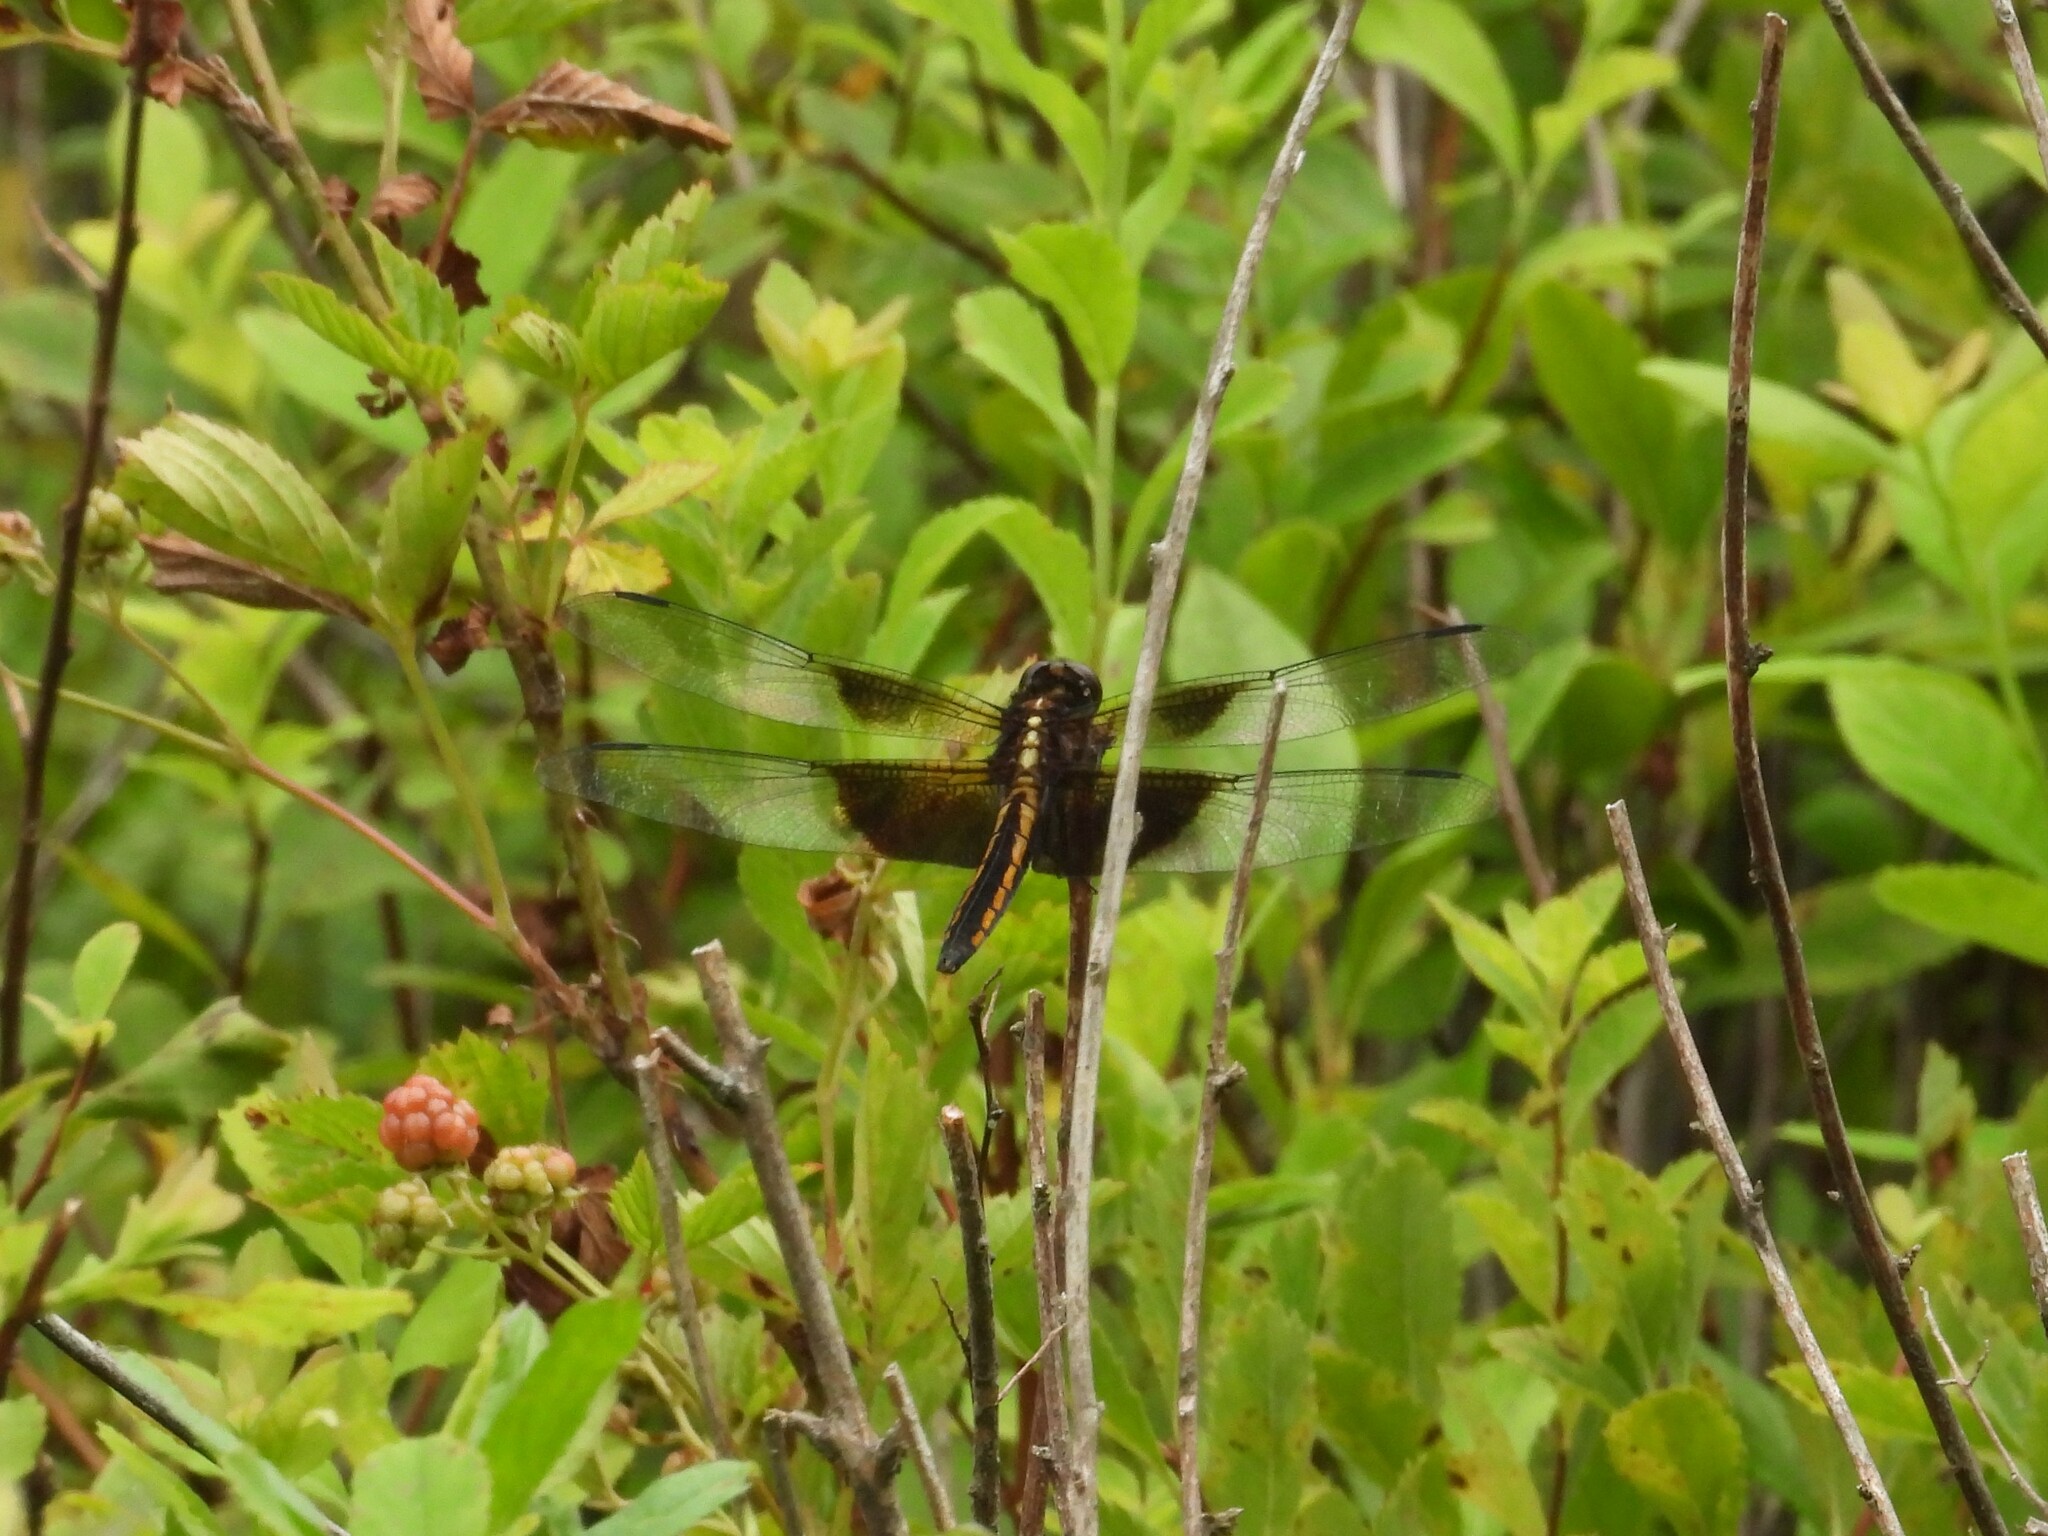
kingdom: Animalia
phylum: Arthropoda
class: Insecta
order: Odonata
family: Libellulidae
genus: Libellula
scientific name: Libellula luctuosa
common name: Widow skimmer
